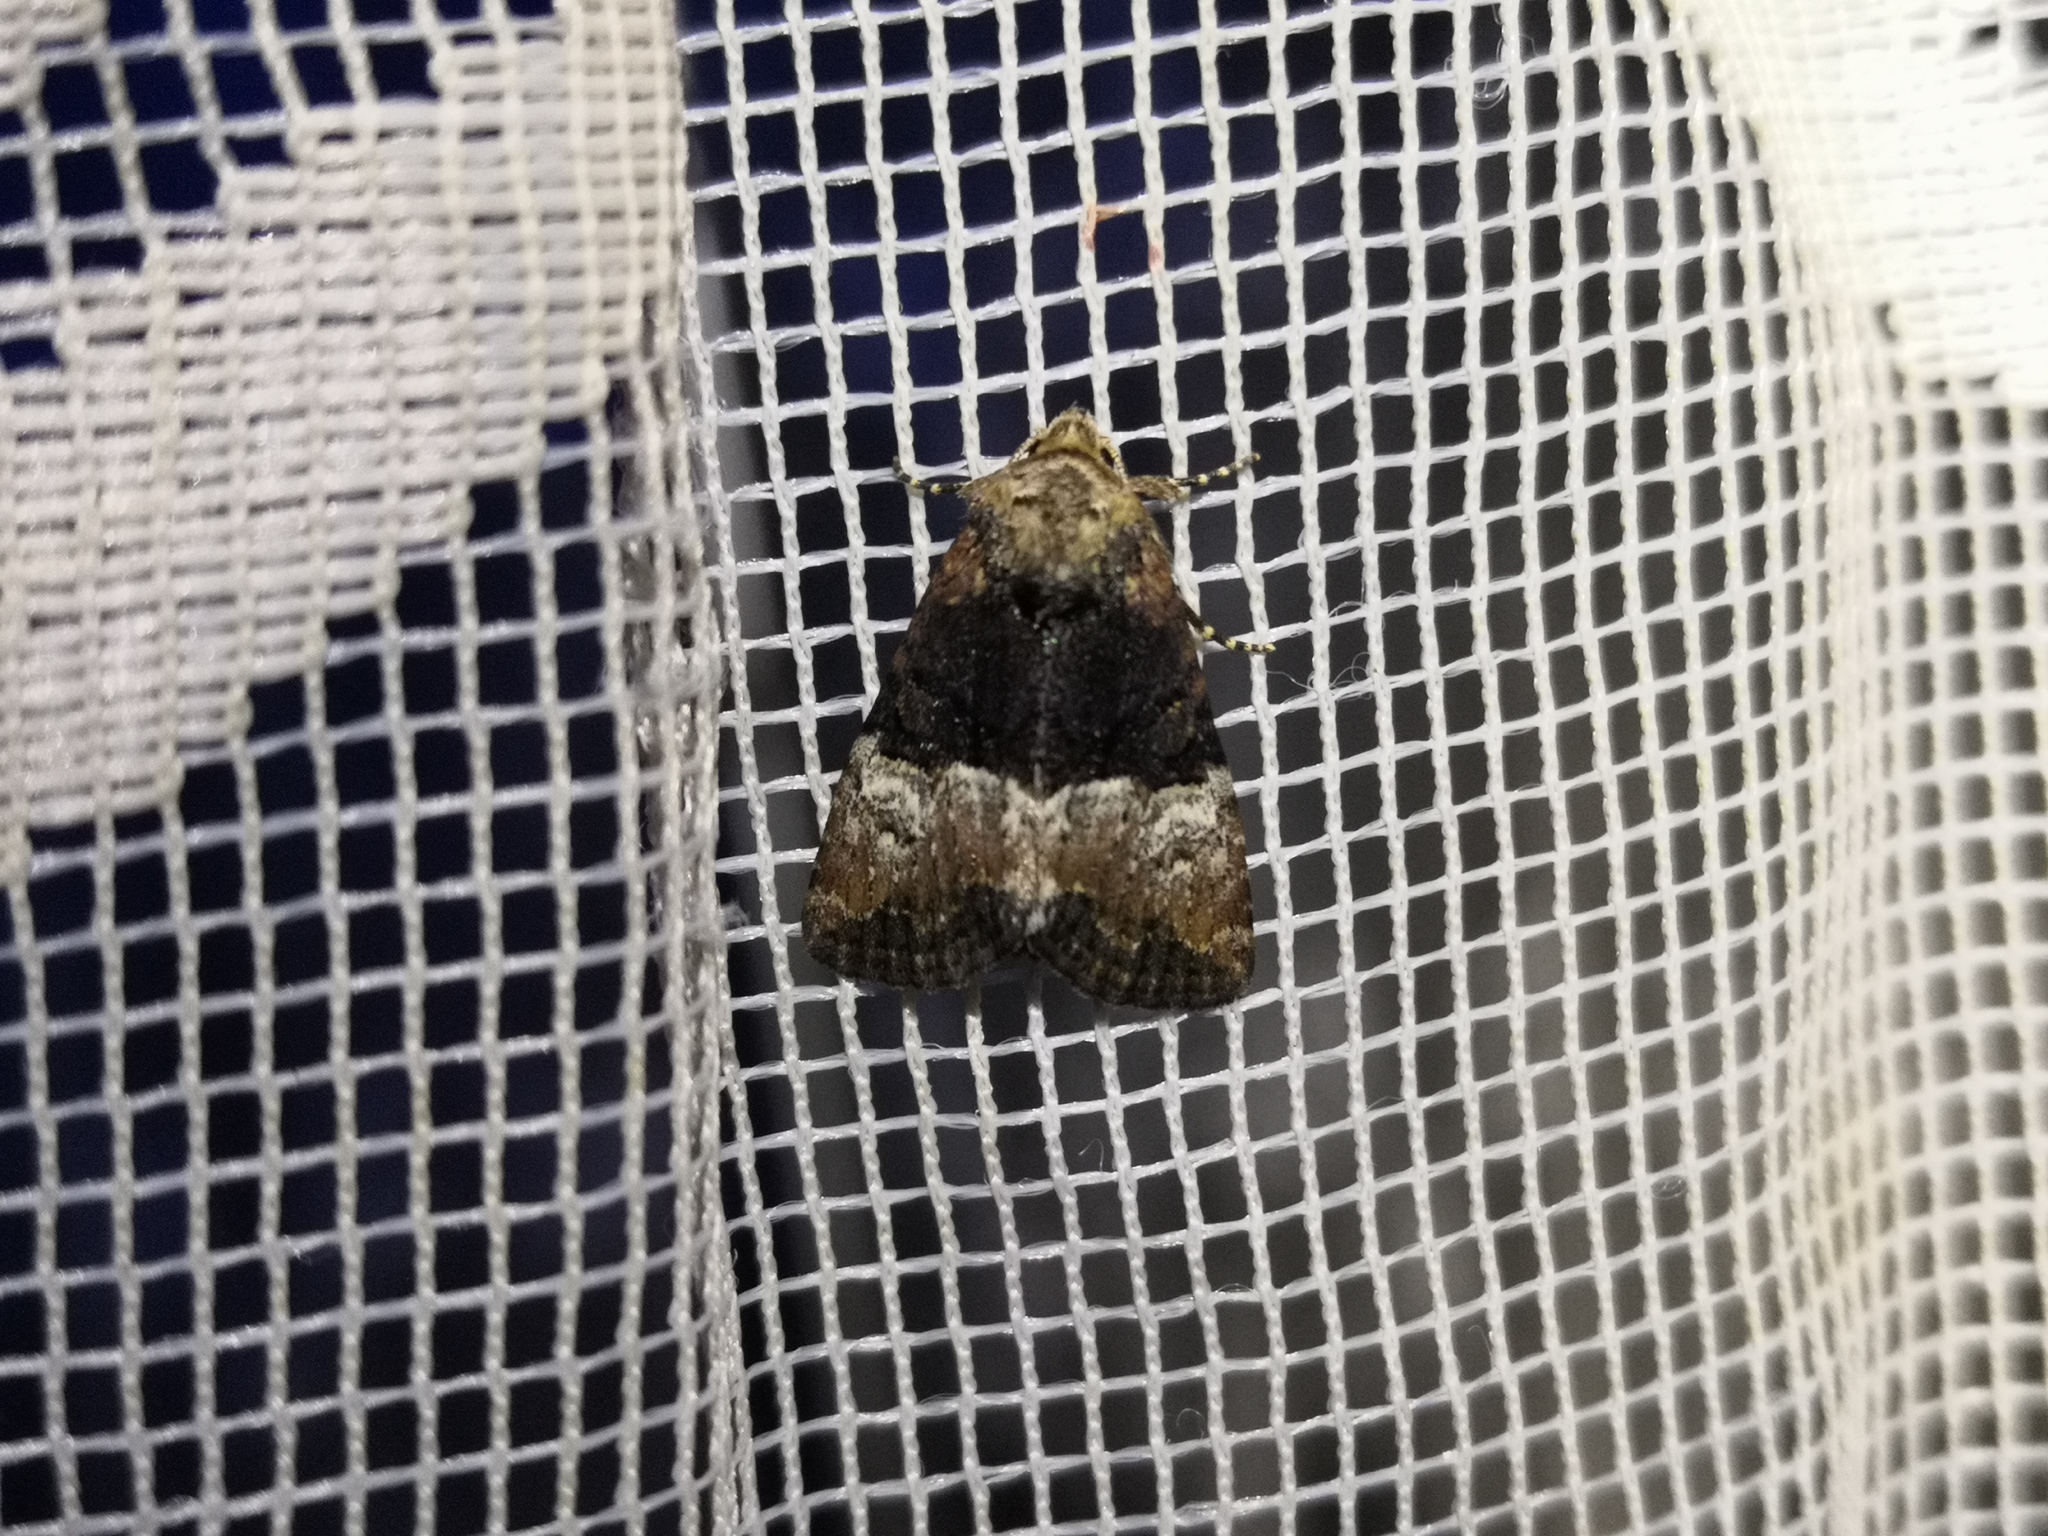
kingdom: Animalia
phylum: Arthropoda
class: Insecta
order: Lepidoptera
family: Noctuidae
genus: Mesoligia
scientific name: Mesoligia furuncula
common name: Cloaked minor
